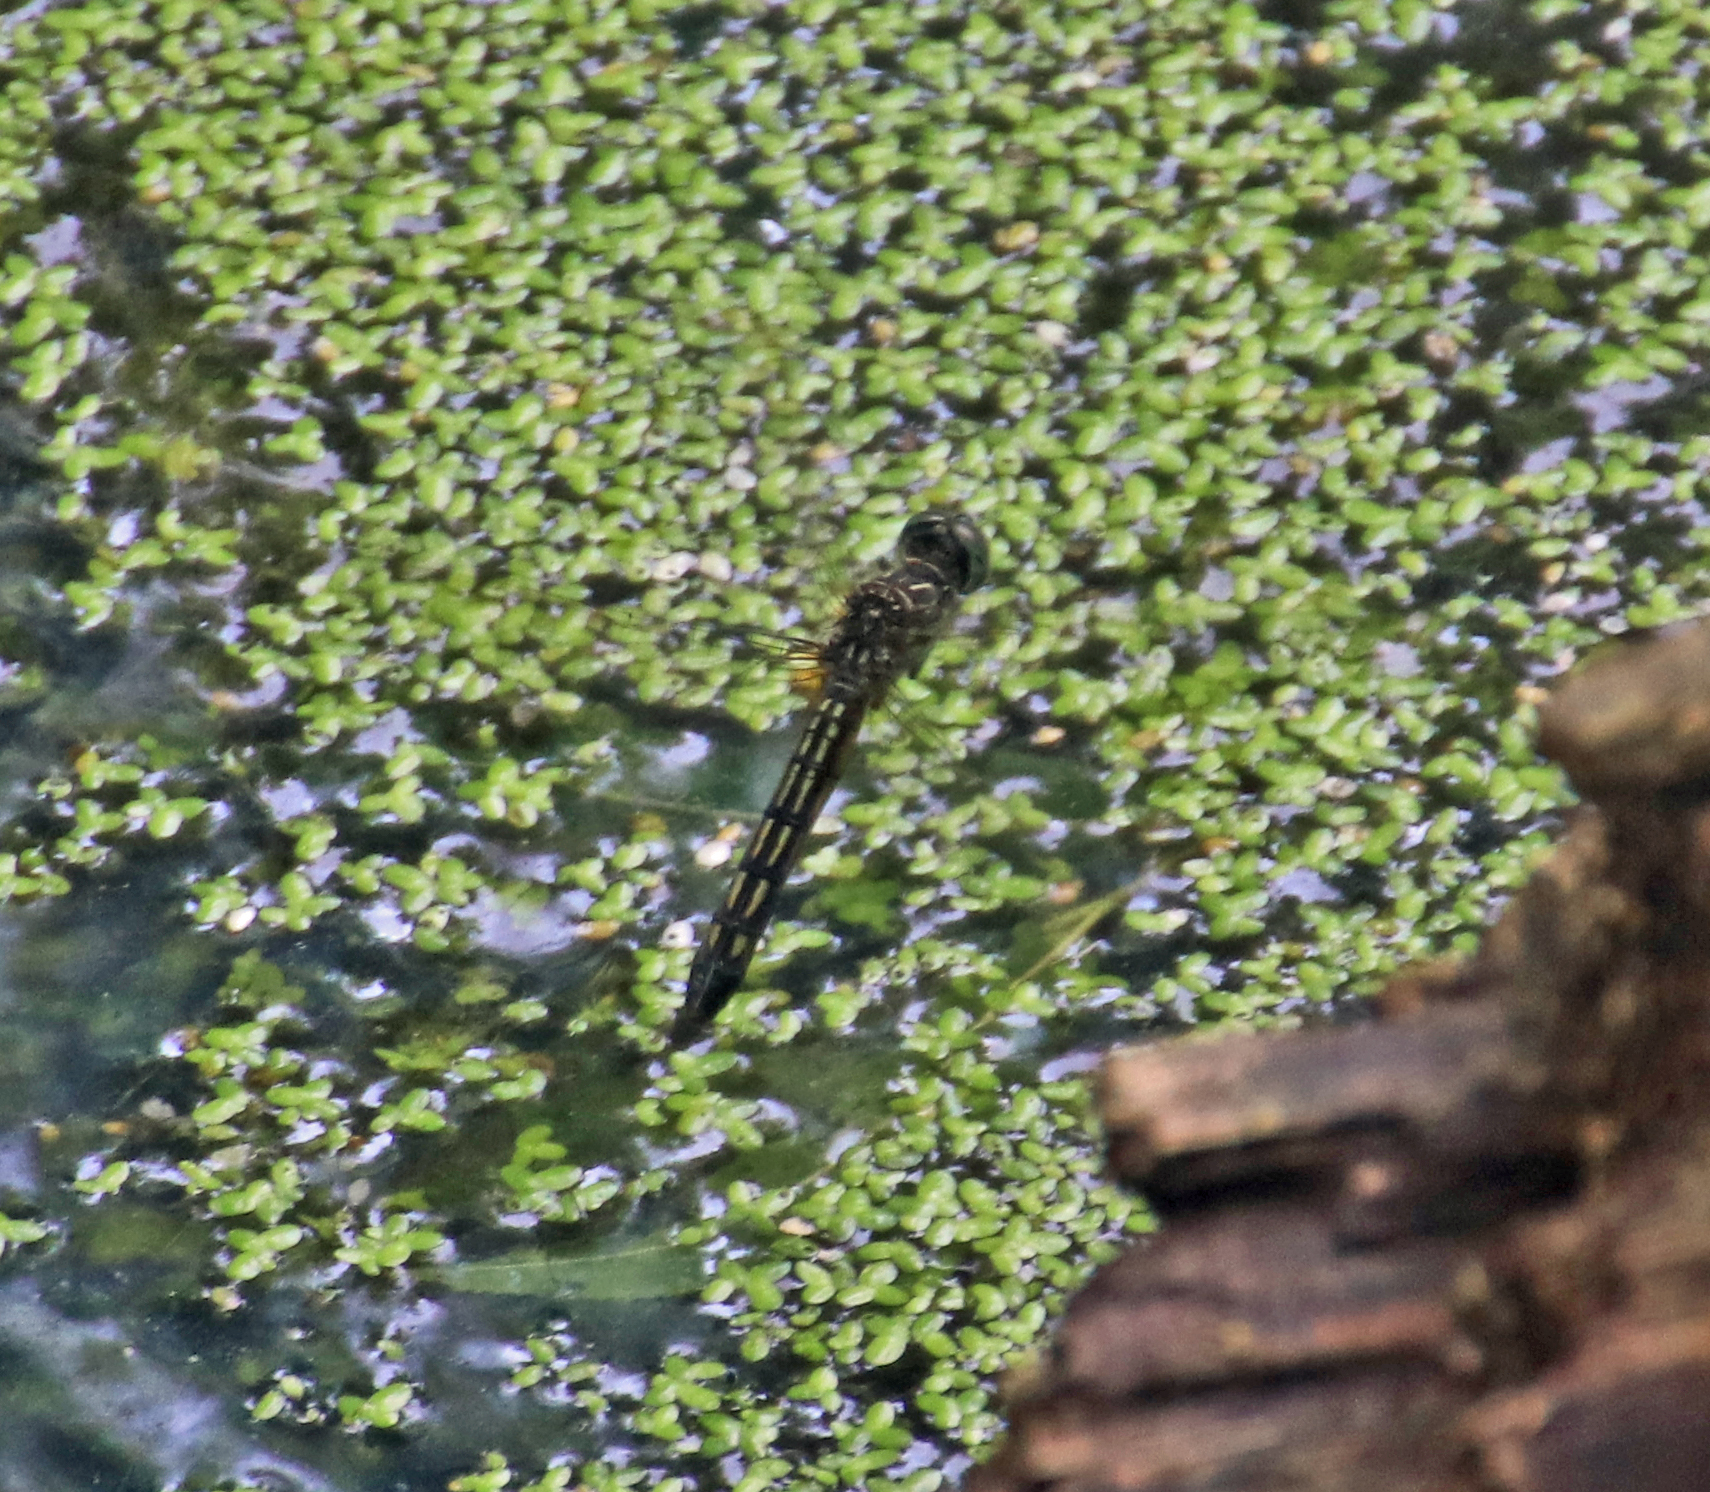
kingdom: Animalia
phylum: Arthropoda
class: Insecta
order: Odonata
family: Libellulidae
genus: Pachydiplax
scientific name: Pachydiplax longipennis
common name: Blue dasher
